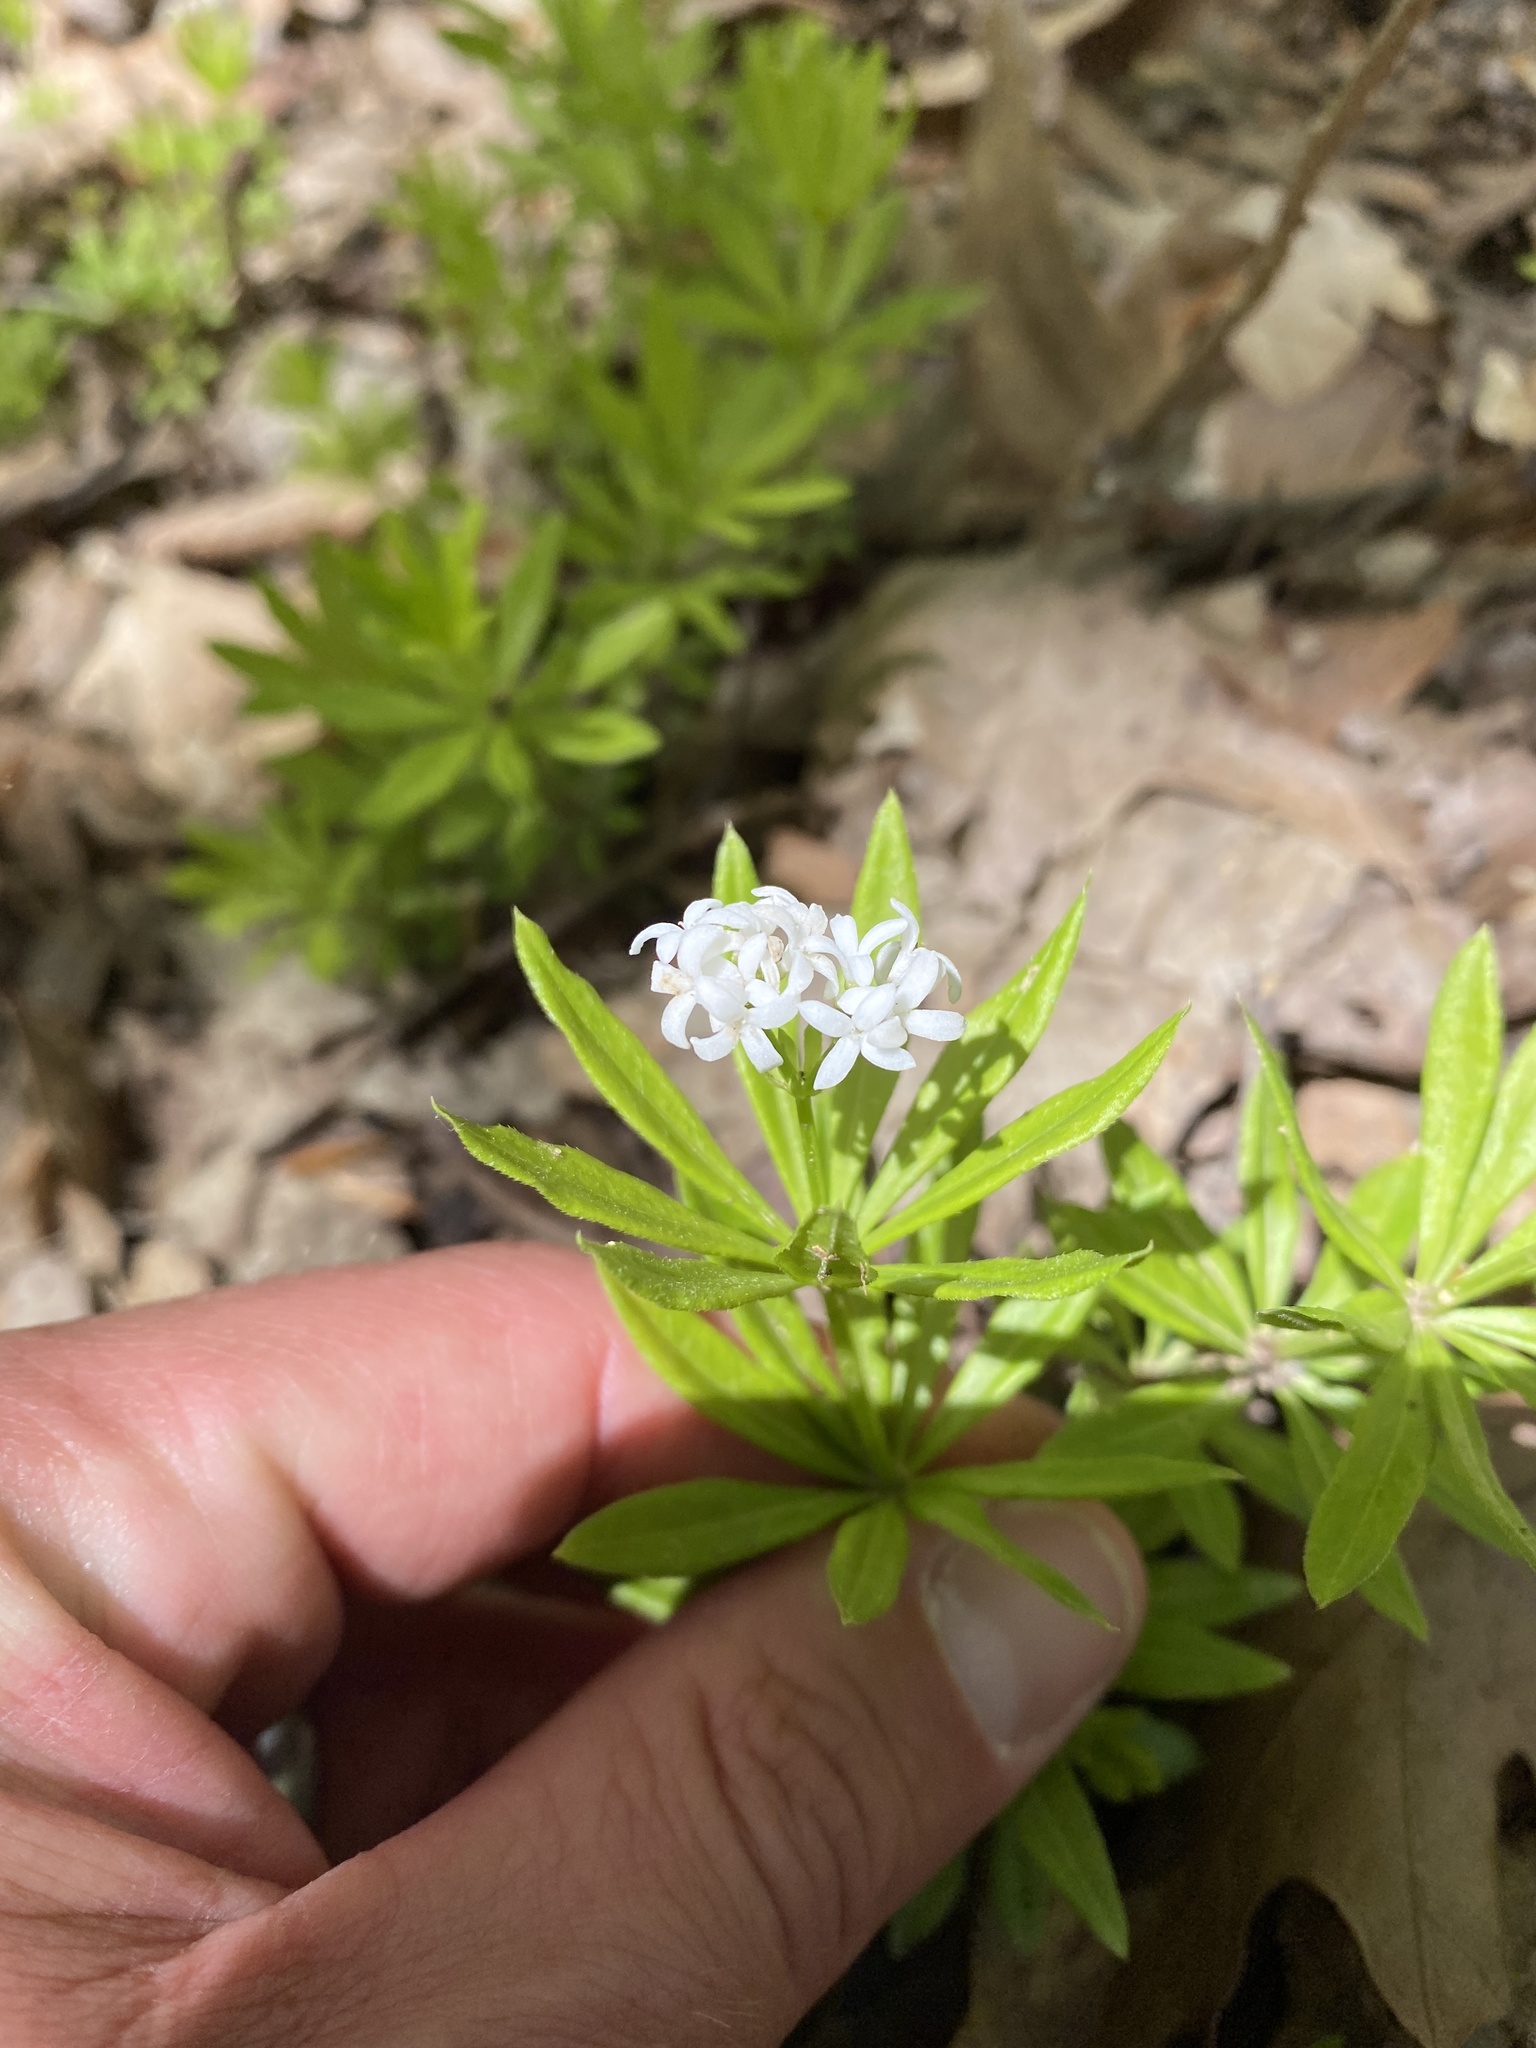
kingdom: Plantae
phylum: Tracheophyta
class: Magnoliopsida
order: Gentianales
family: Rubiaceae
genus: Galium
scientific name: Galium odoratum
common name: Sweet woodruff
